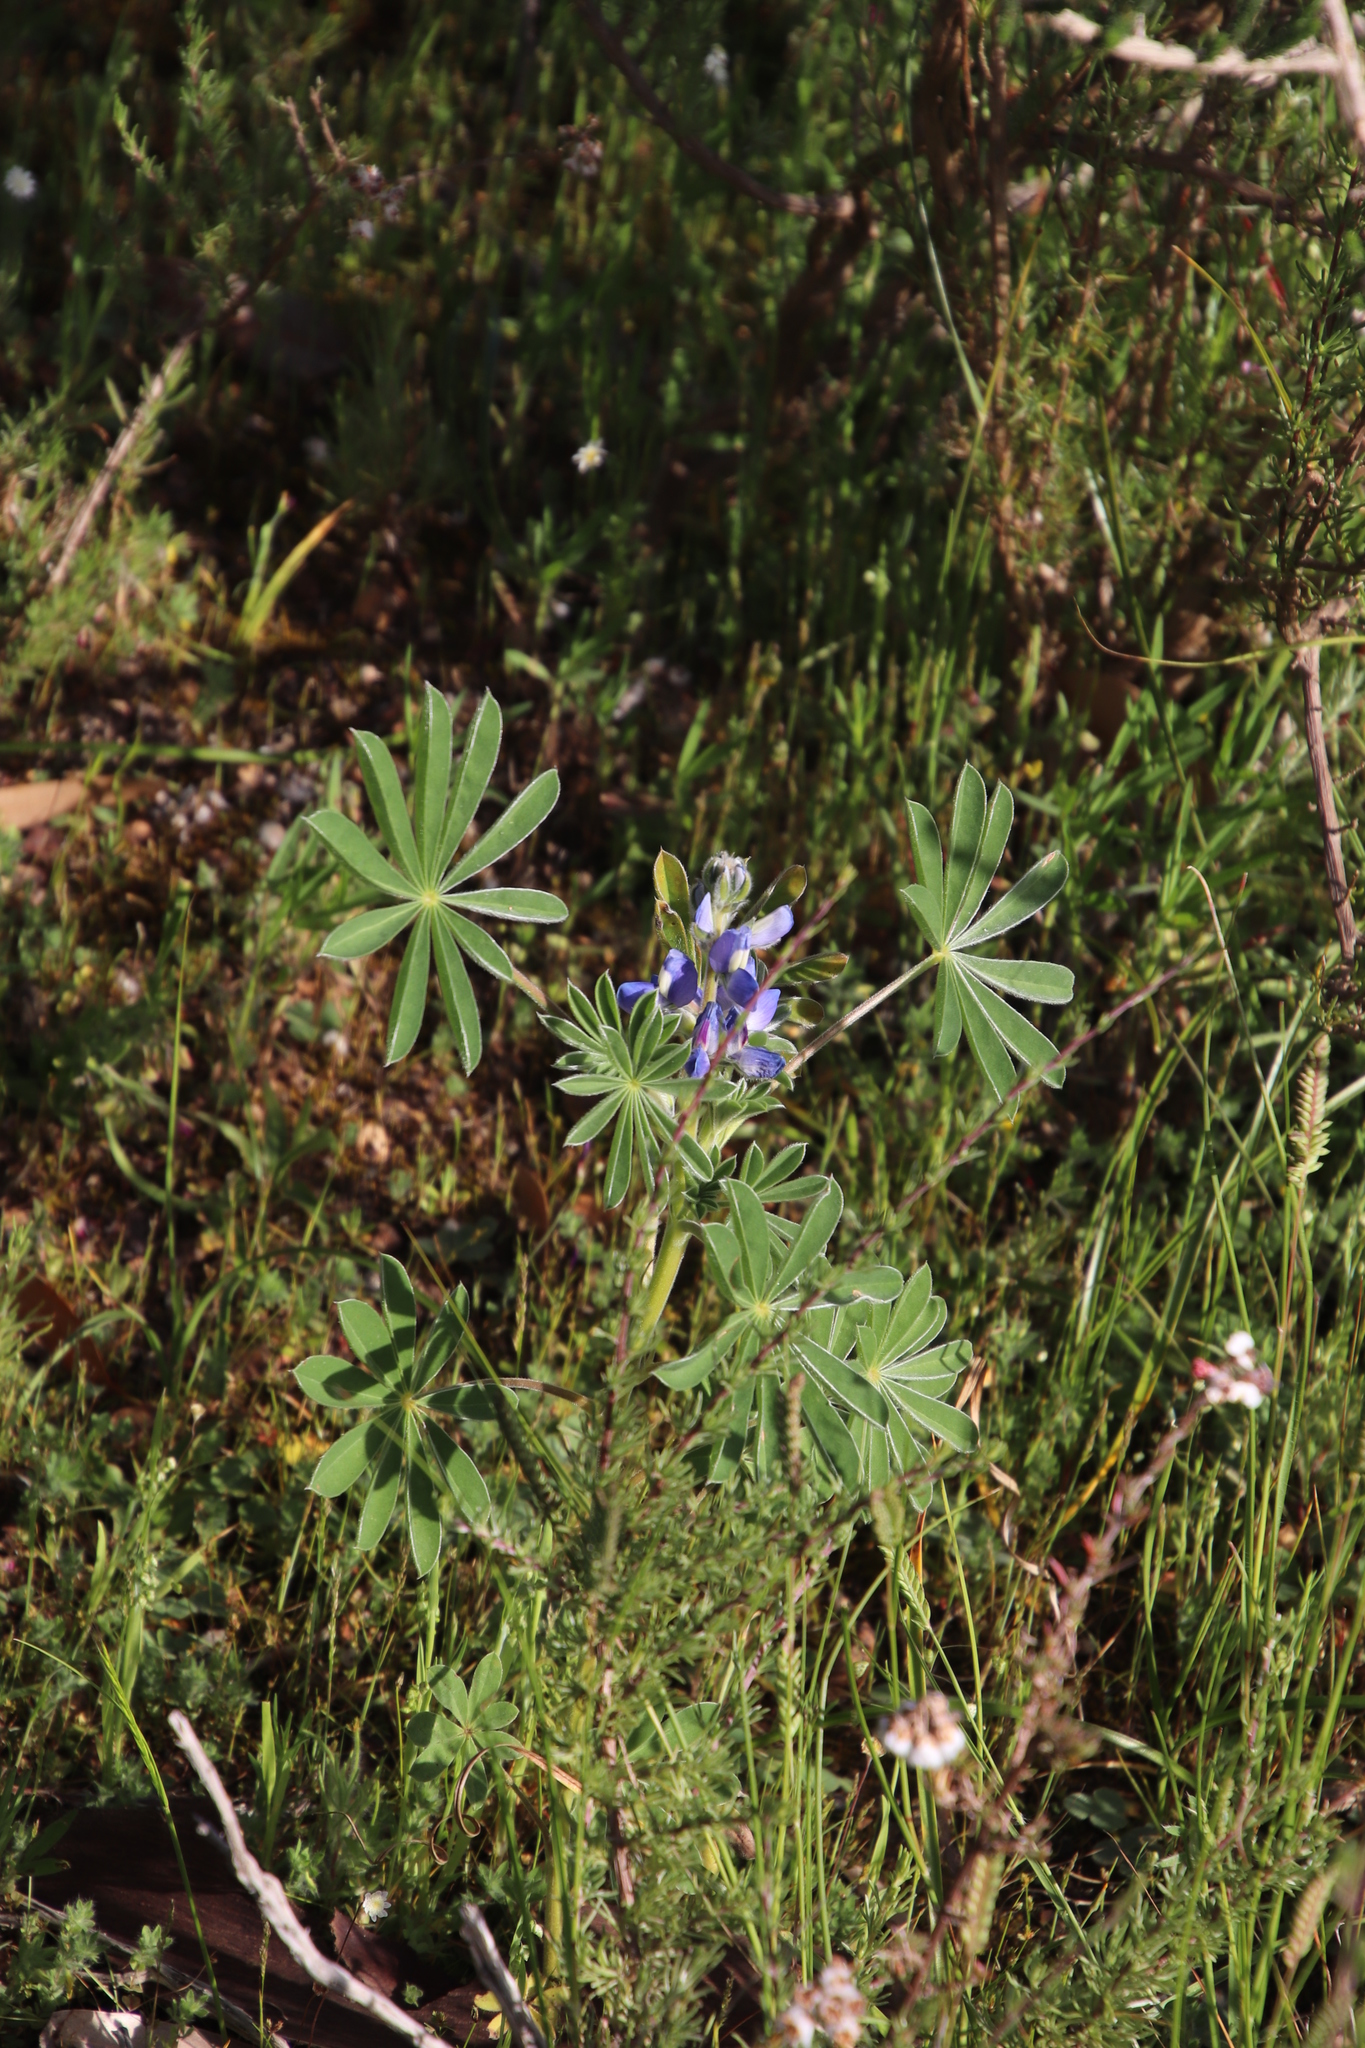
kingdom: Plantae
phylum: Tracheophyta
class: Magnoliopsida
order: Fabales
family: Fabaceae
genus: Lupinus
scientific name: Lupinus cosentinii
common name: Hairy blue lupin
